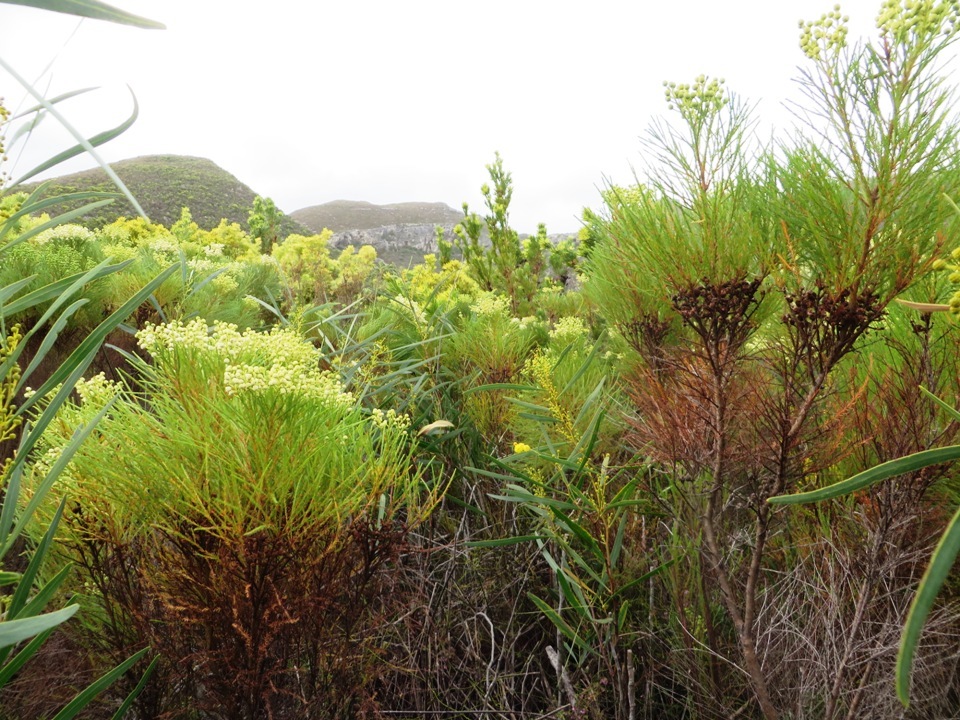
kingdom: Plantae
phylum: Tracheophyta
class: Magnoliopsida
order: Bruniales
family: Bruniaceae
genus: Berzelia
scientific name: Berzelia lanuginosa
